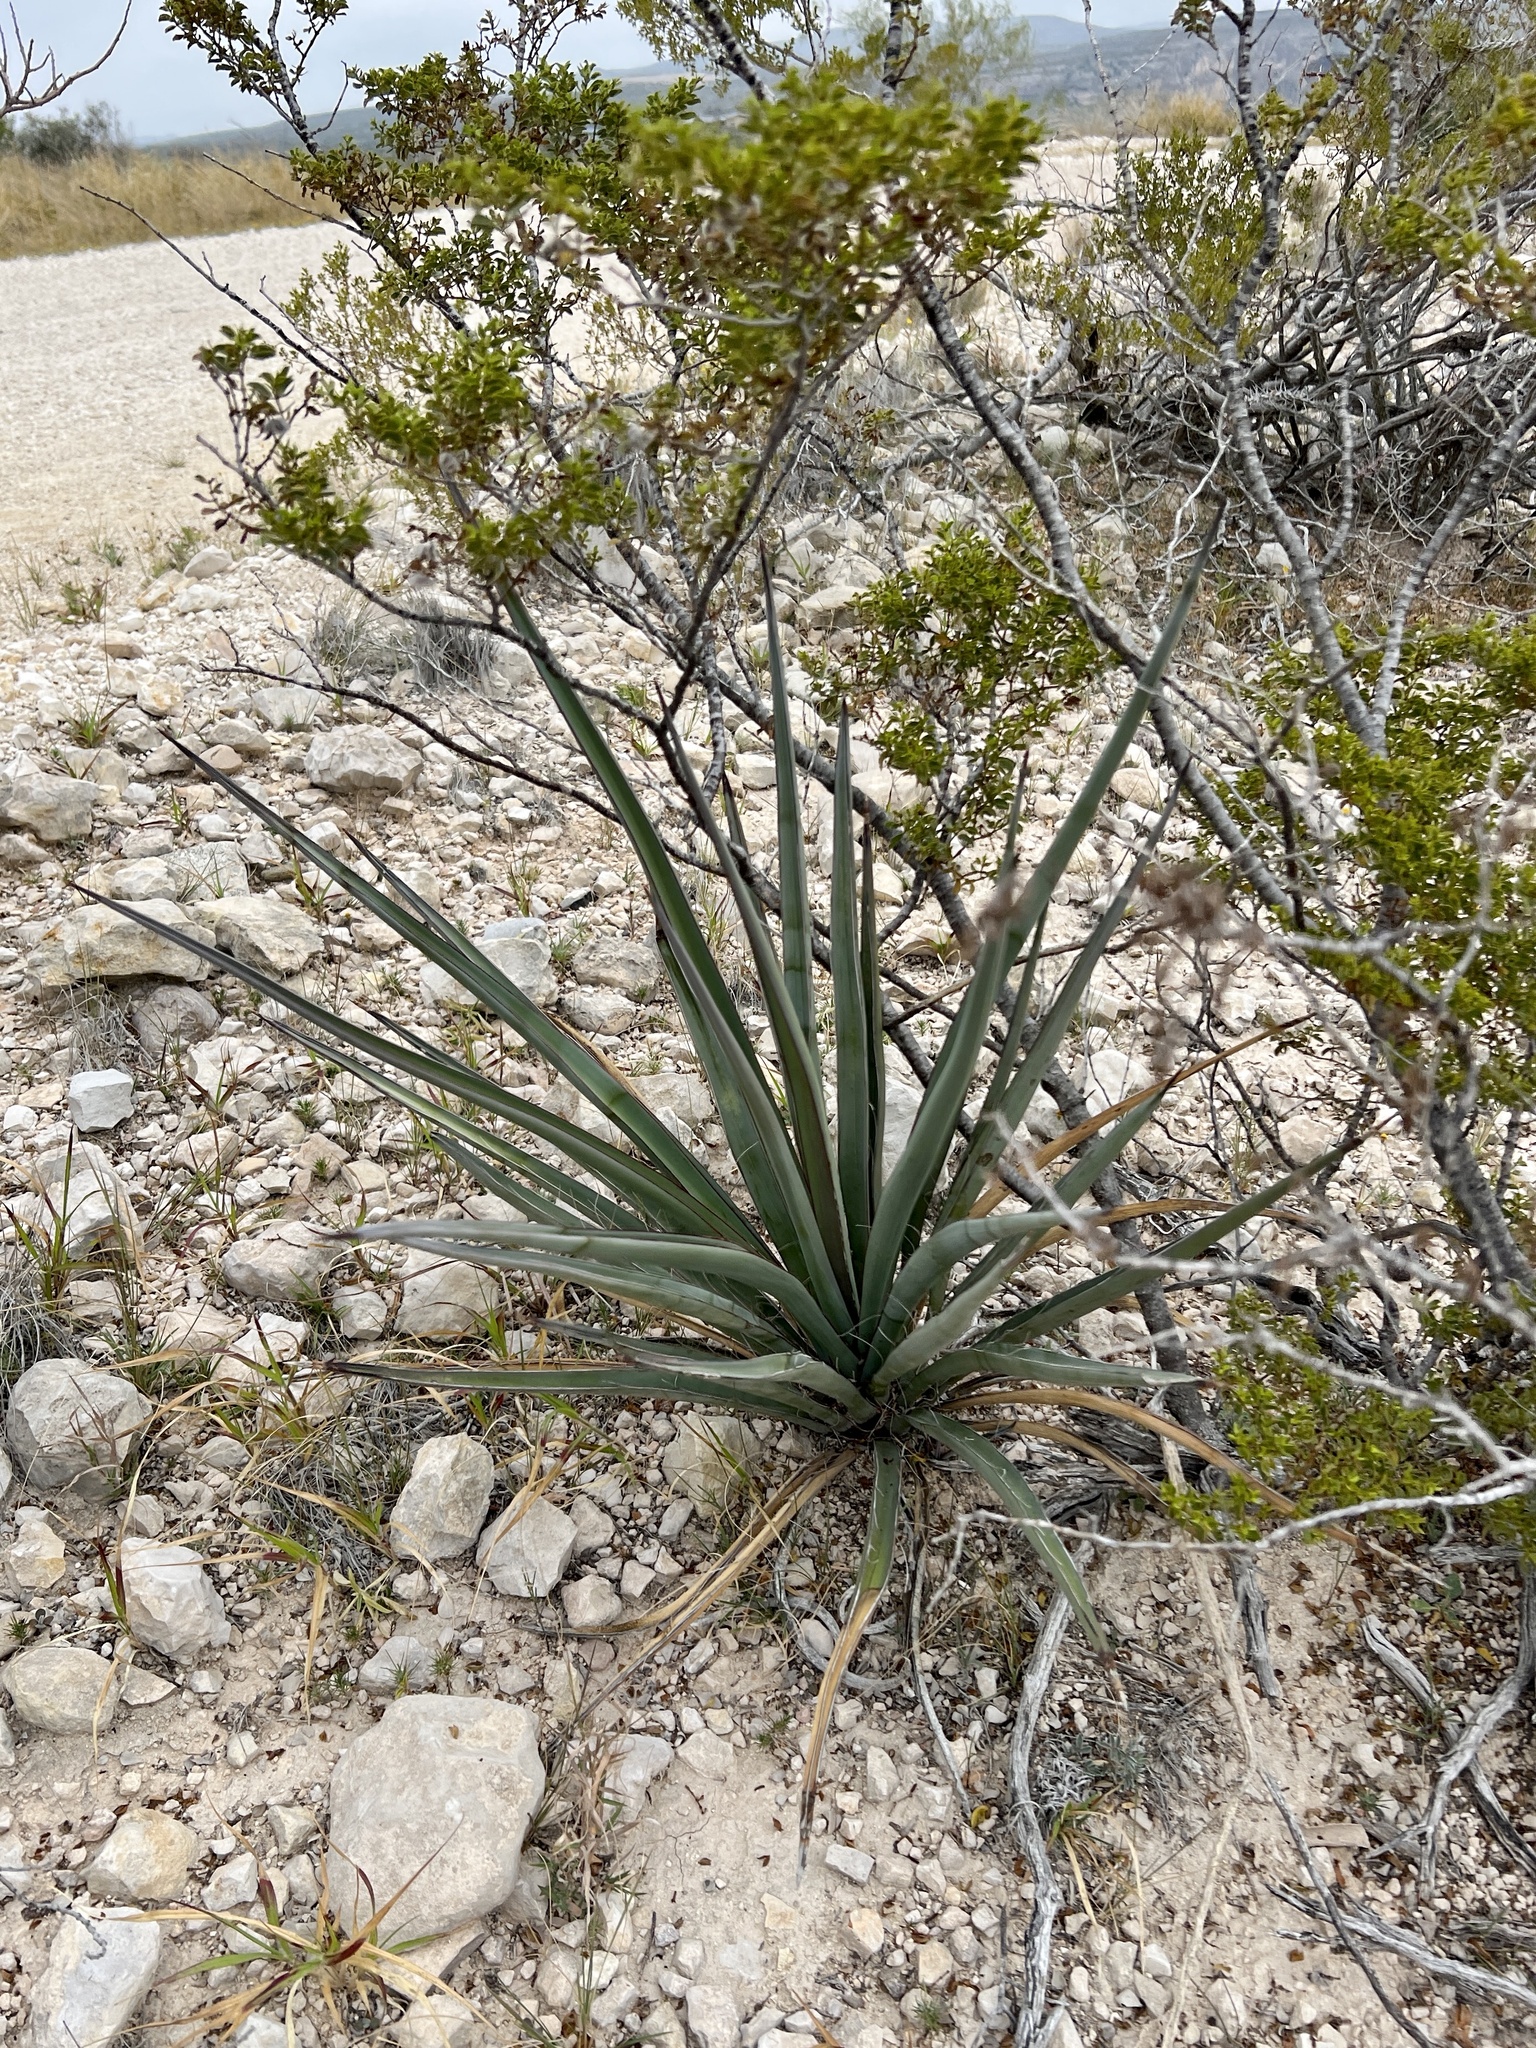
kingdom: Plantae
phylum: Tracheophyta
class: Liliopsida
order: Asparagales
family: Asparagaceae
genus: Yucca
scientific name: Yucca treculiana
